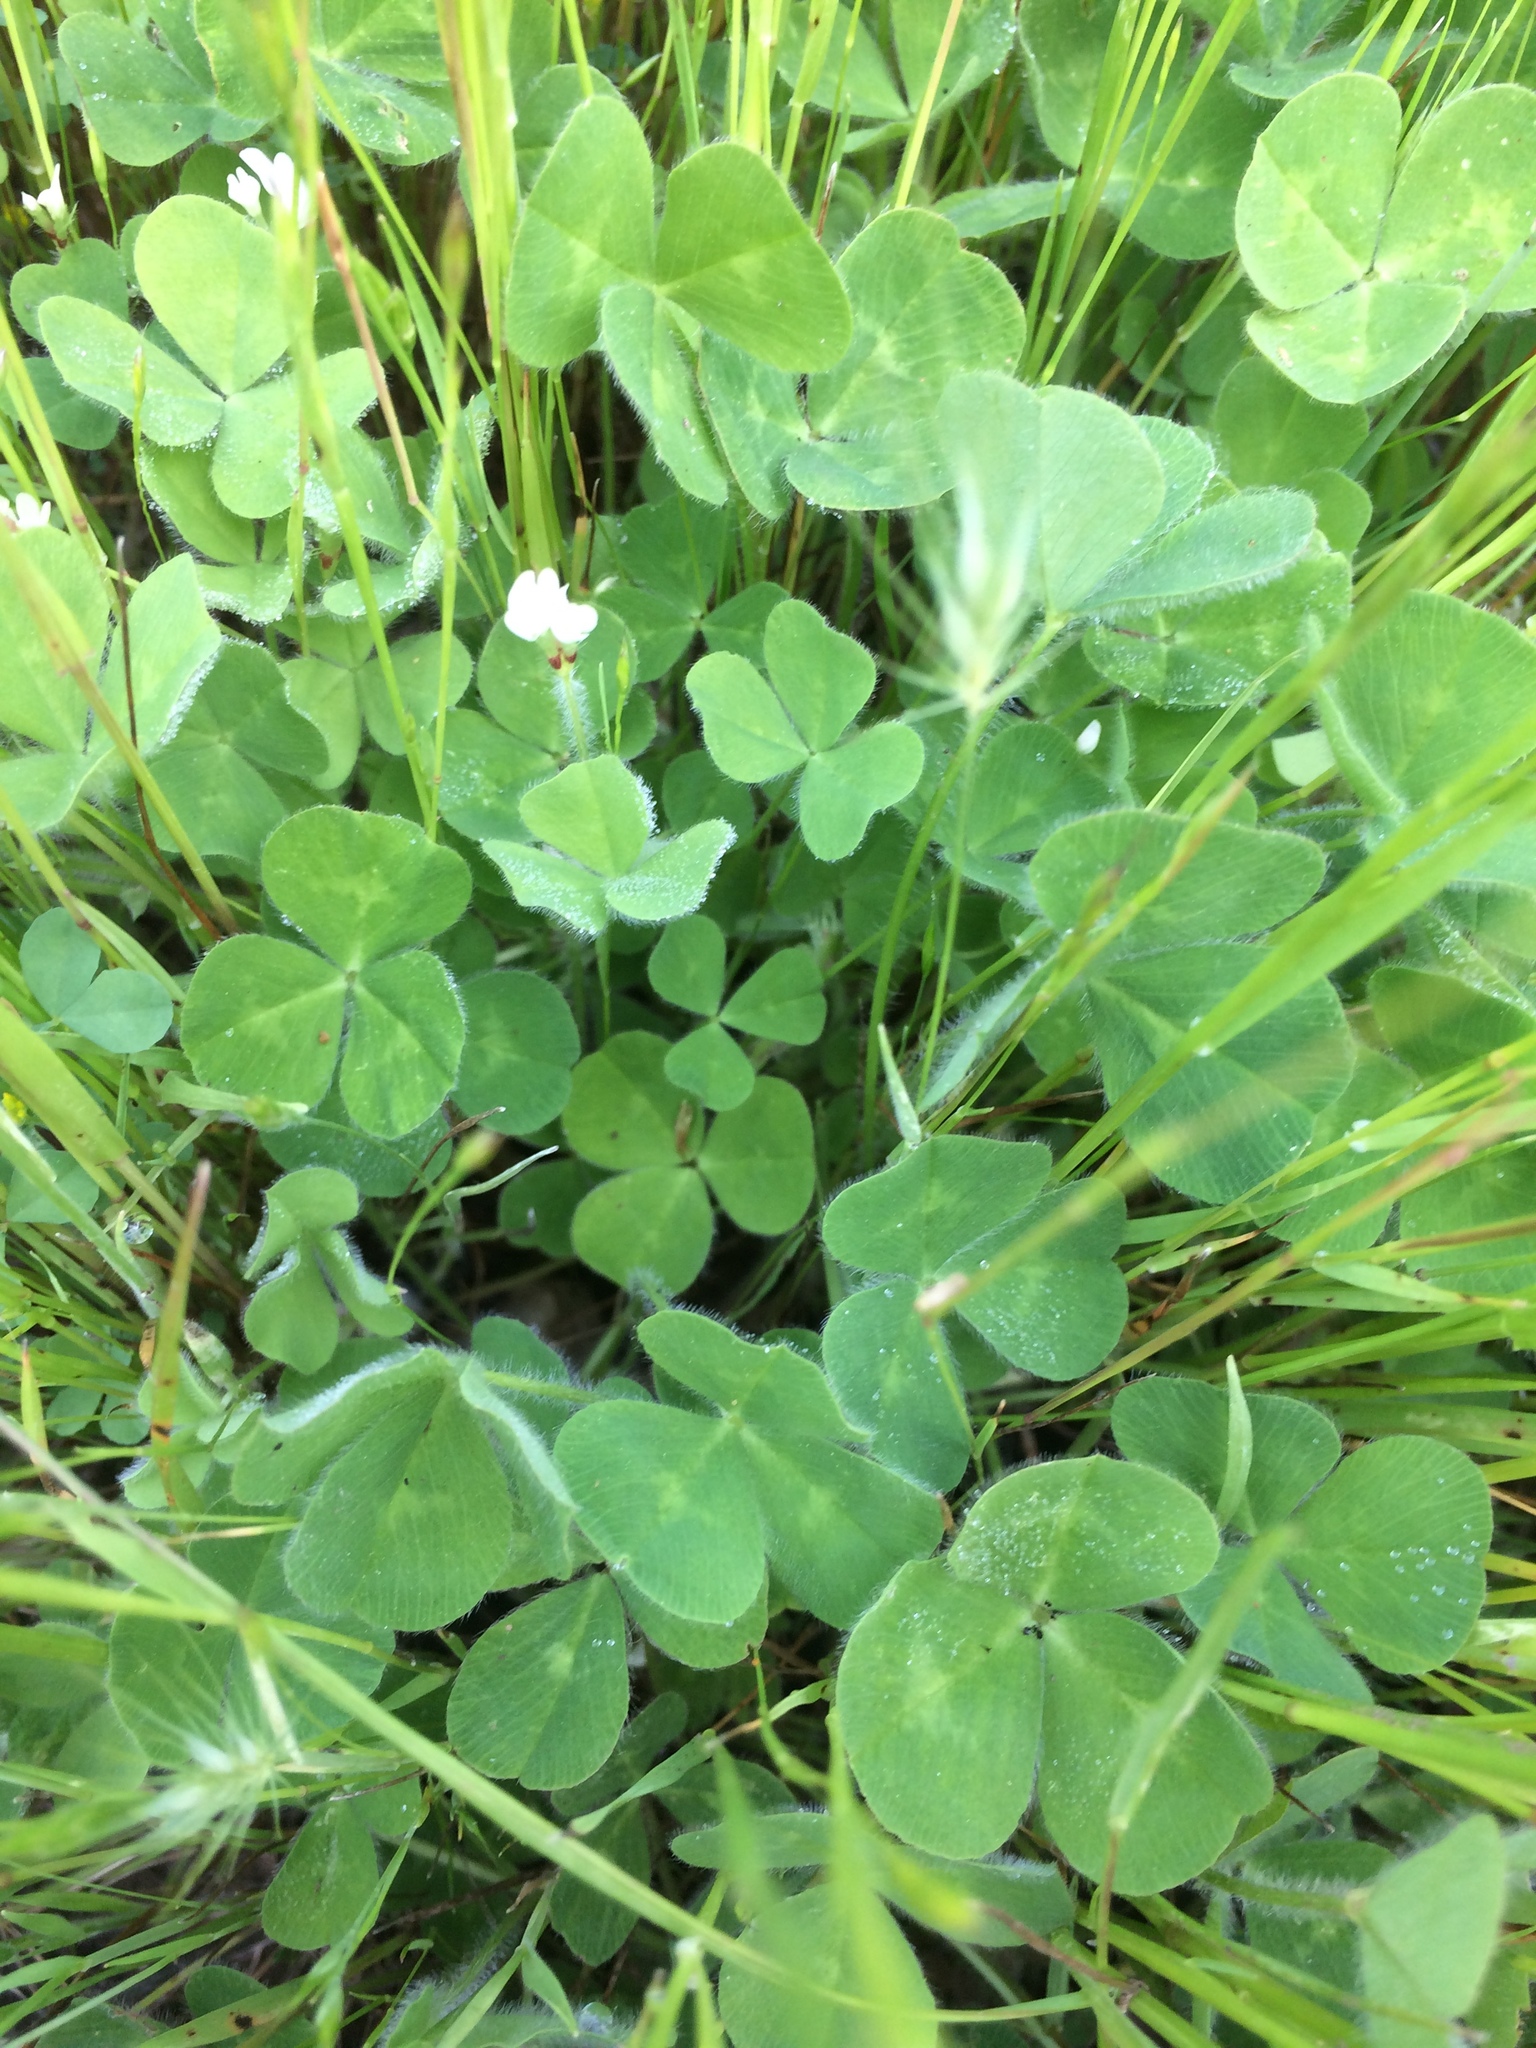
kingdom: Plantae
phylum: Tracheophyta
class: Magnoliopsida
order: Fabales
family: Fabaceae
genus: Trifolium
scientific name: Trifolium subterraneum
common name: Subterranean clover
